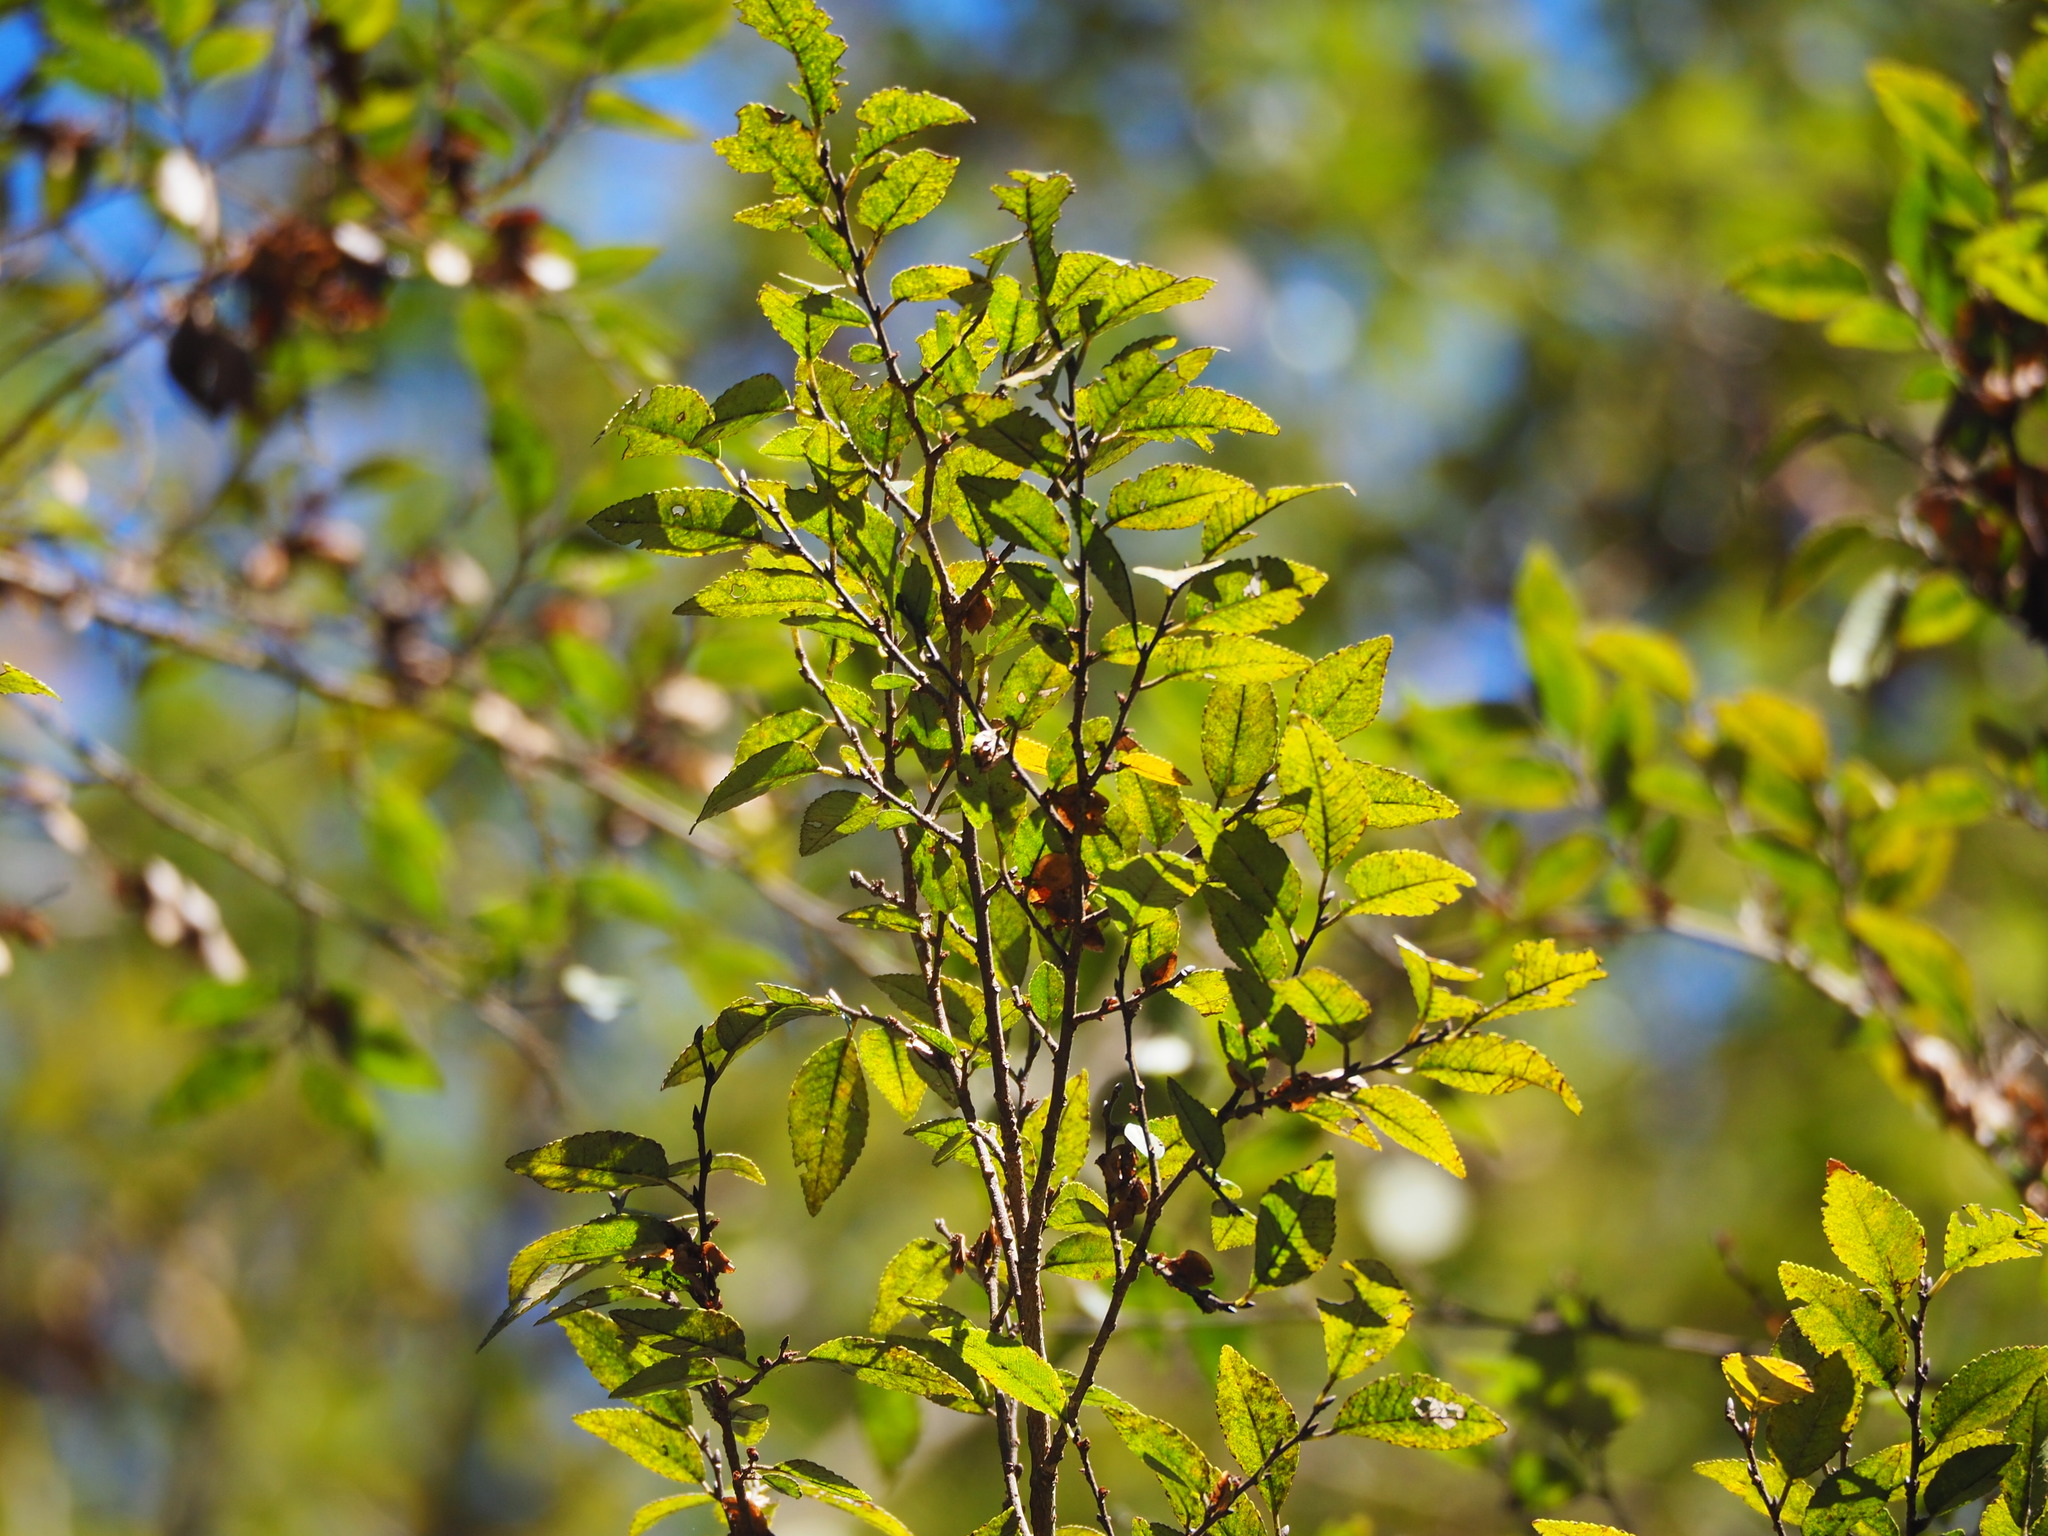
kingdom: Plantae
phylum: Tracheophyta
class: Magnoliopsida
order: Rosales
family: Ulmaceae
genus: Ulmus
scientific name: Ulmus parvifolia
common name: Chinese elm
